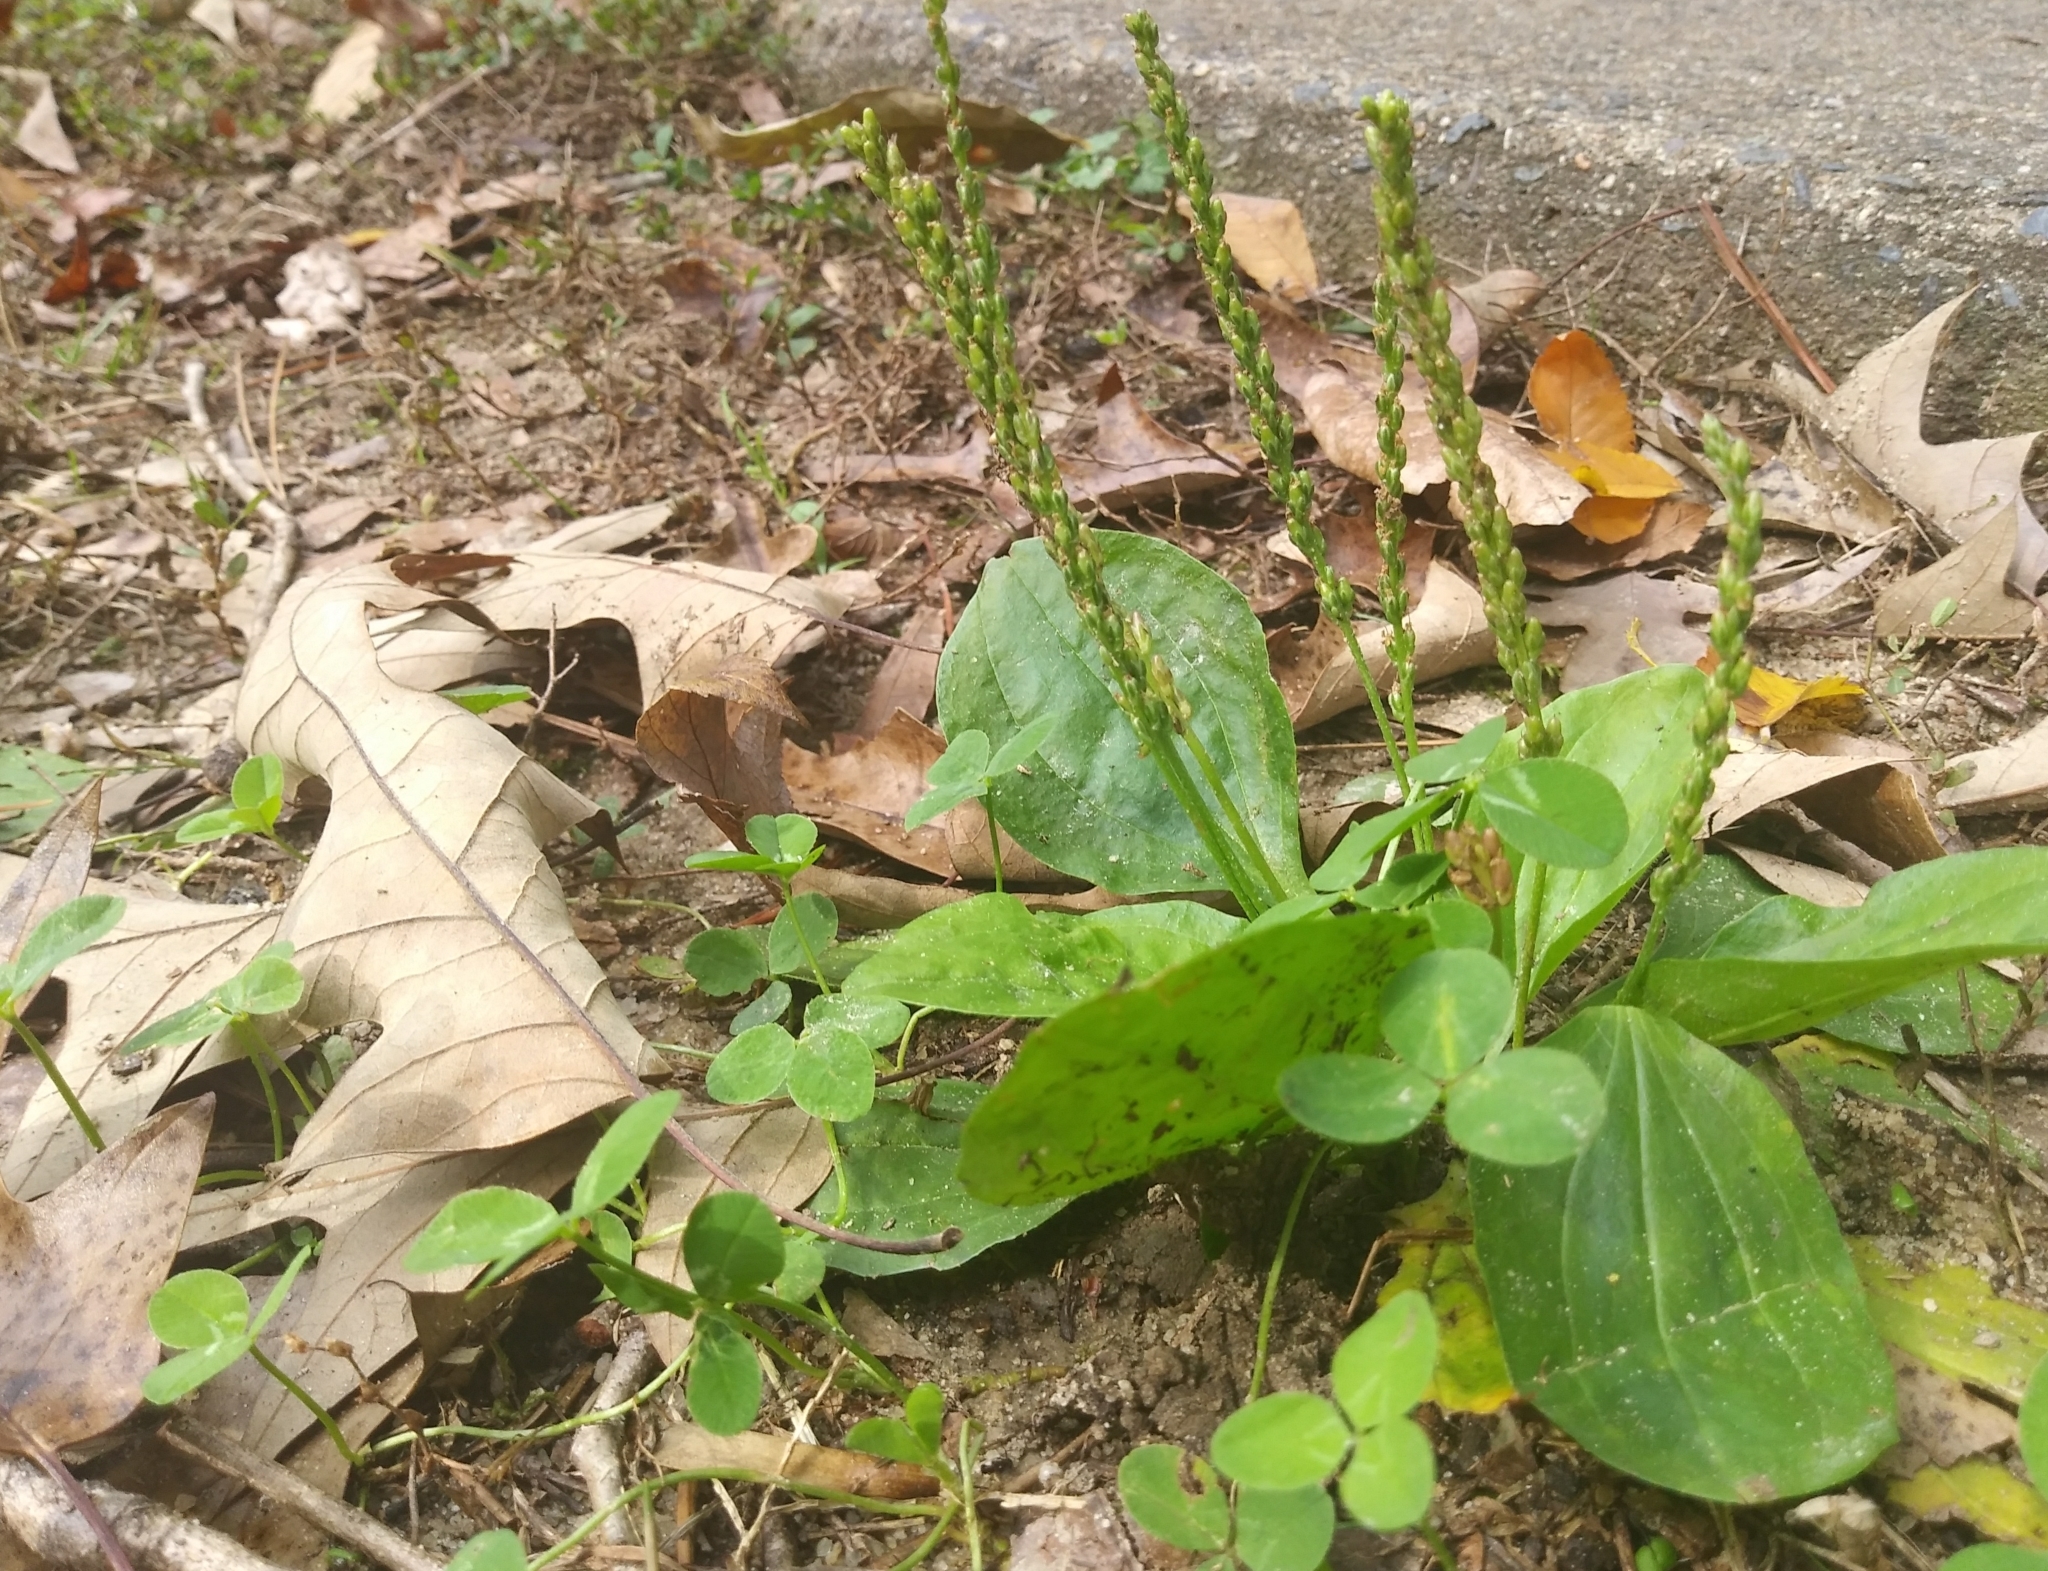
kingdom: Plantae
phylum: Tracheophyta
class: Magnoliopsida
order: Lamiales
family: Plantaginaceae
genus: Plantago
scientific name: Plantago major
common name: Common plantain
